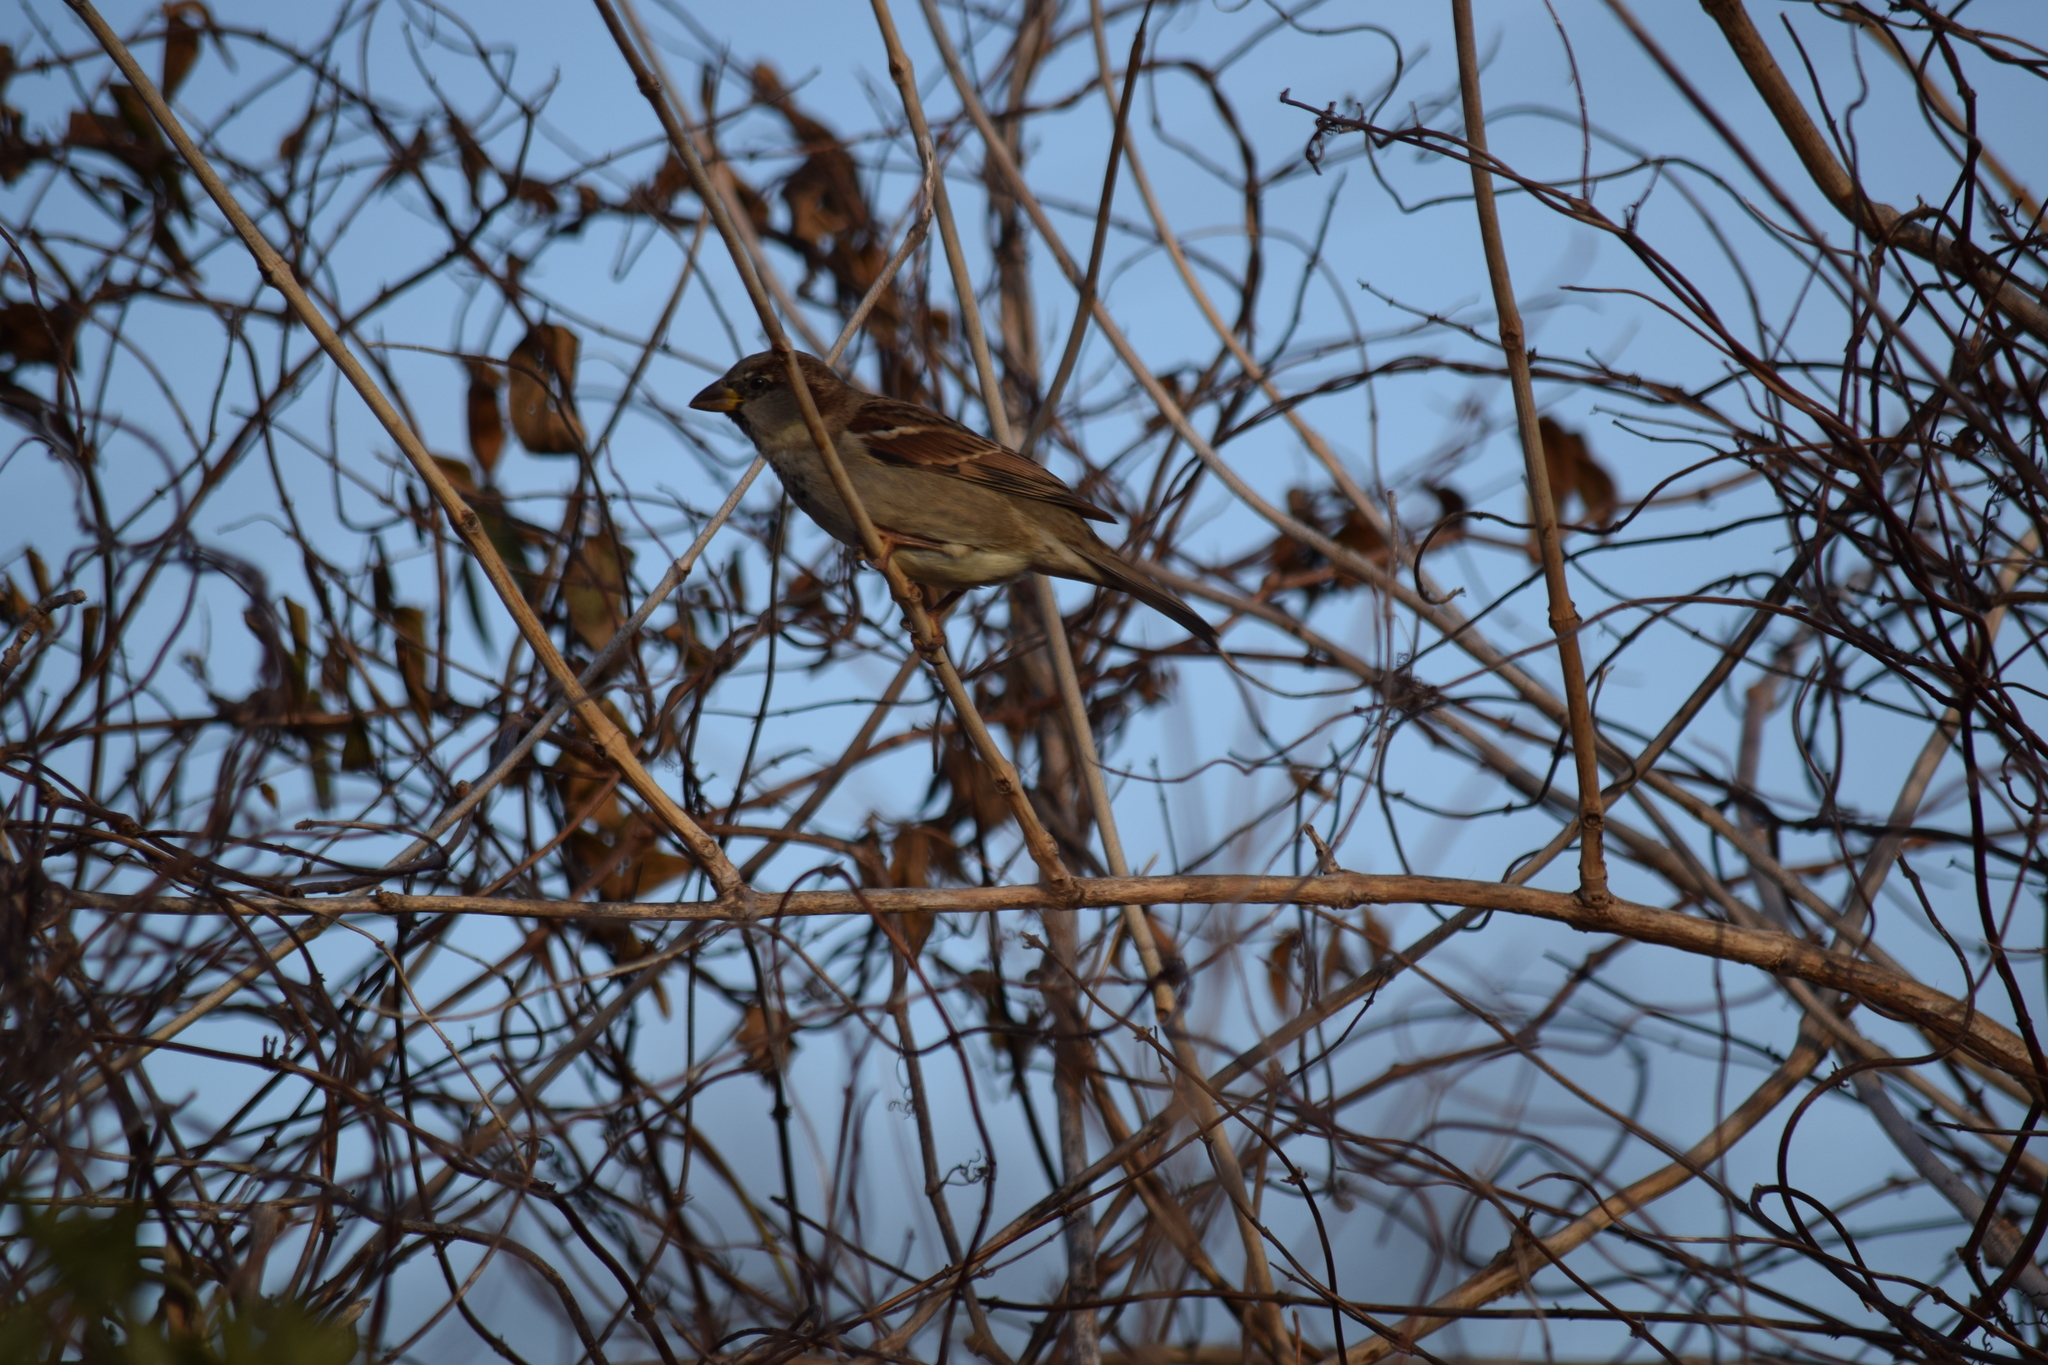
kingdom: Animalia
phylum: Chordata
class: Aves
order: Passeriformes
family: Passeridae
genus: Passer
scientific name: Passer domesticus
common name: House sparrow
